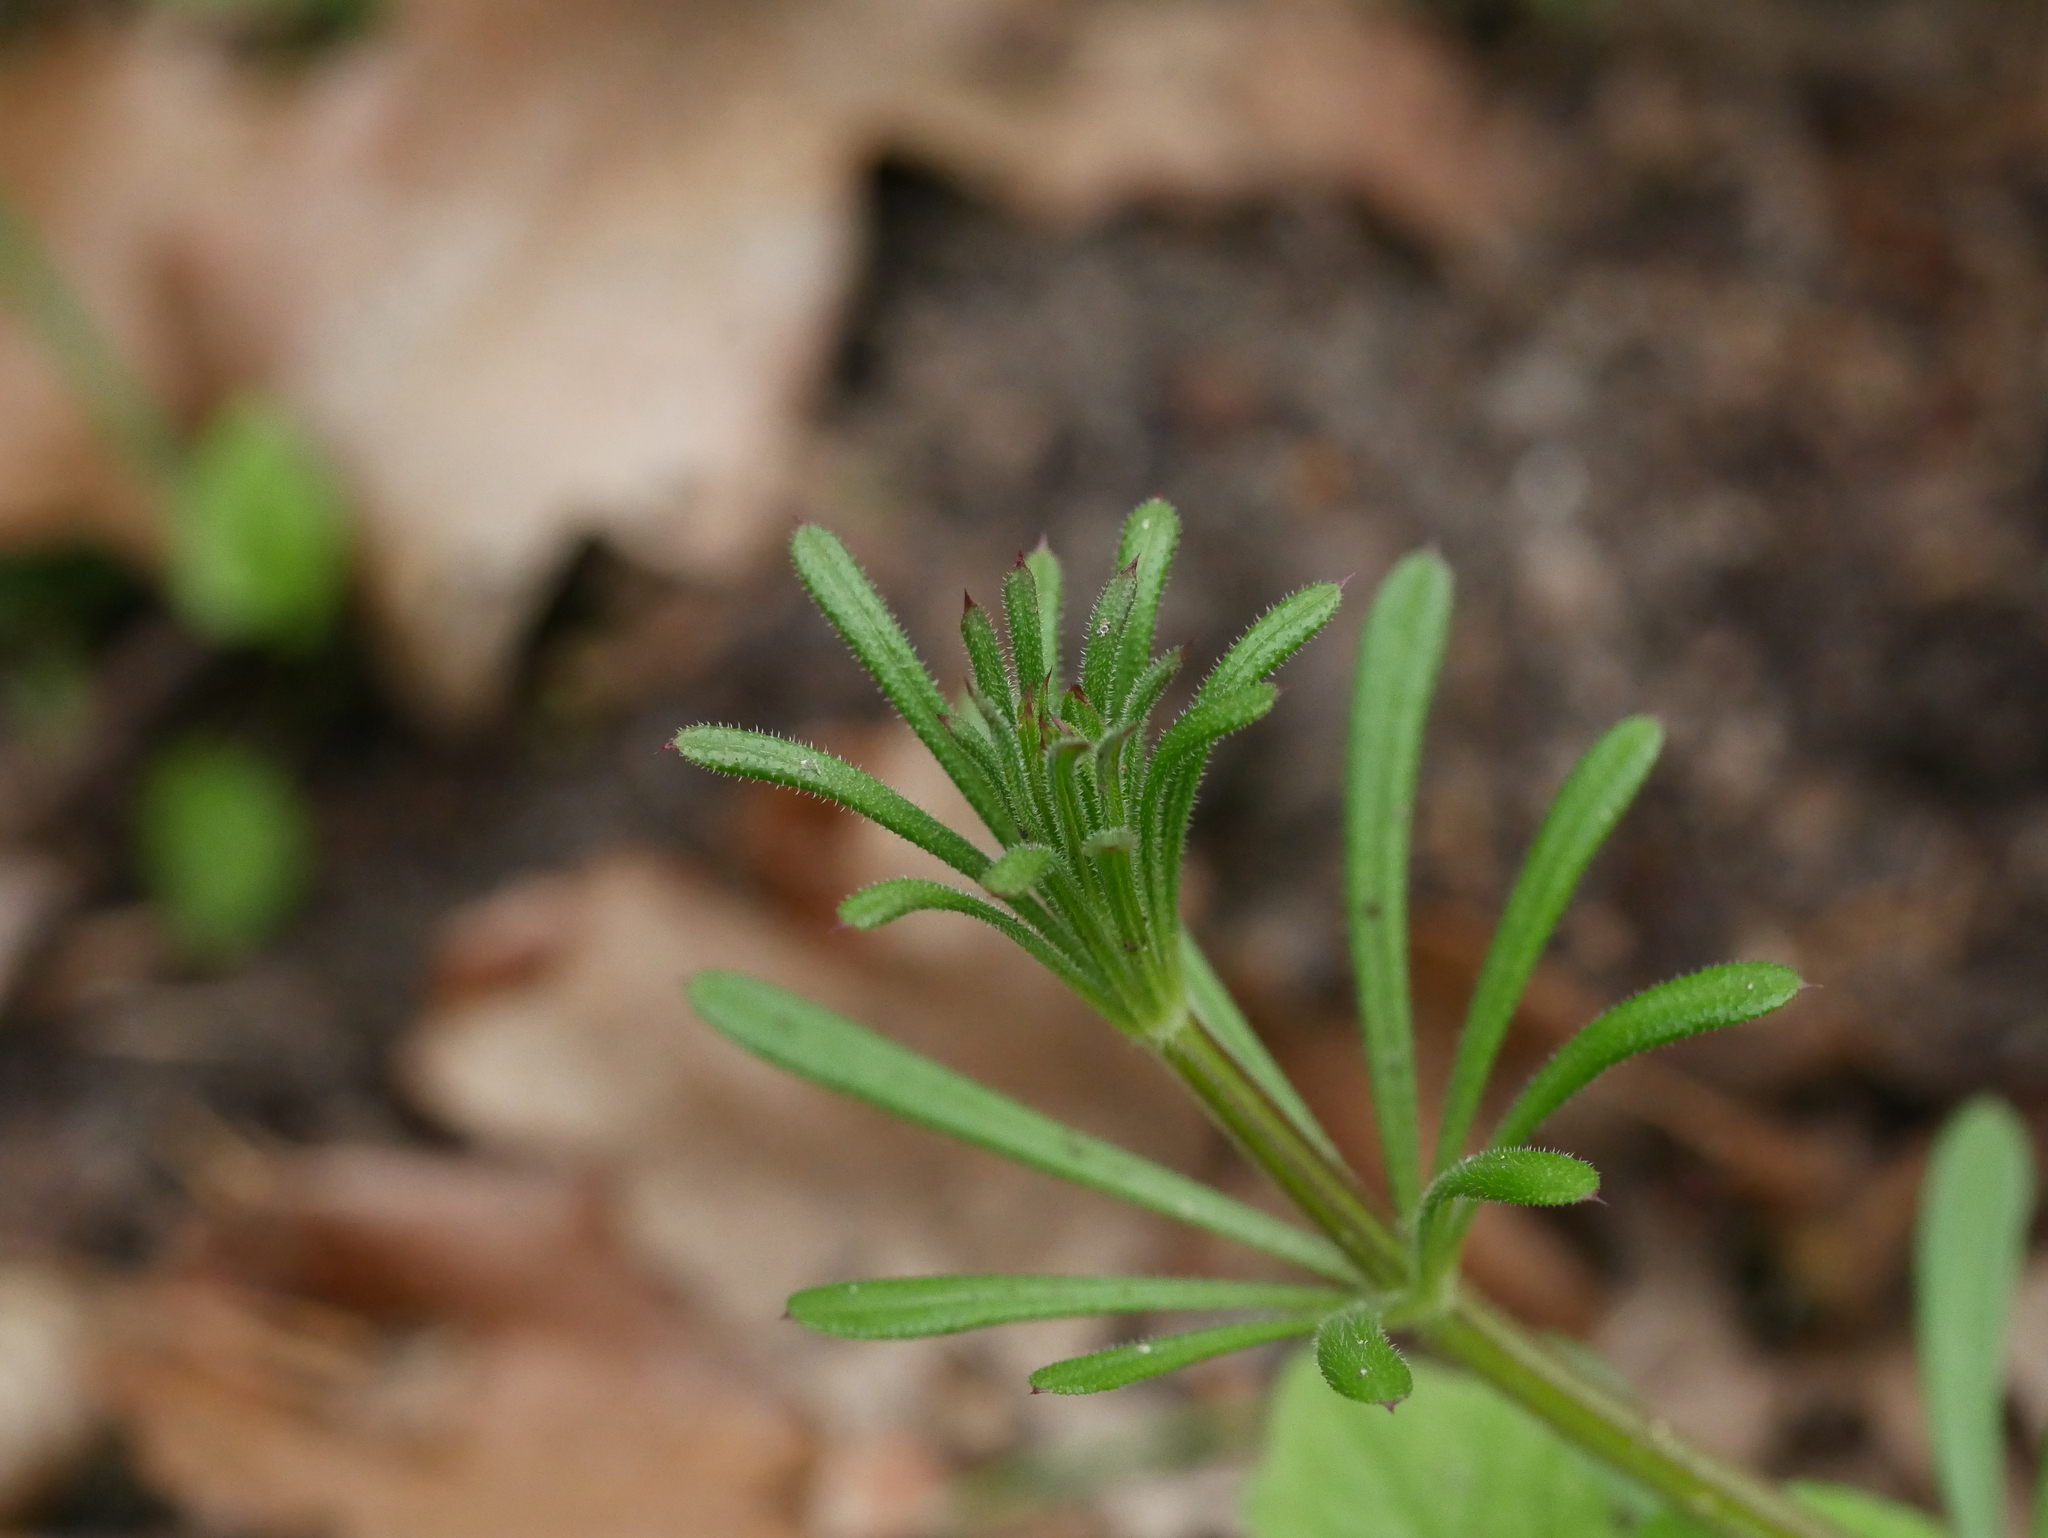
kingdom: Plantae
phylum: Tracheophyta
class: Magnoliopsida
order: Gentianales
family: Rubiaceae
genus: Galium
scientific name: Galium aparine
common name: Cleavers
